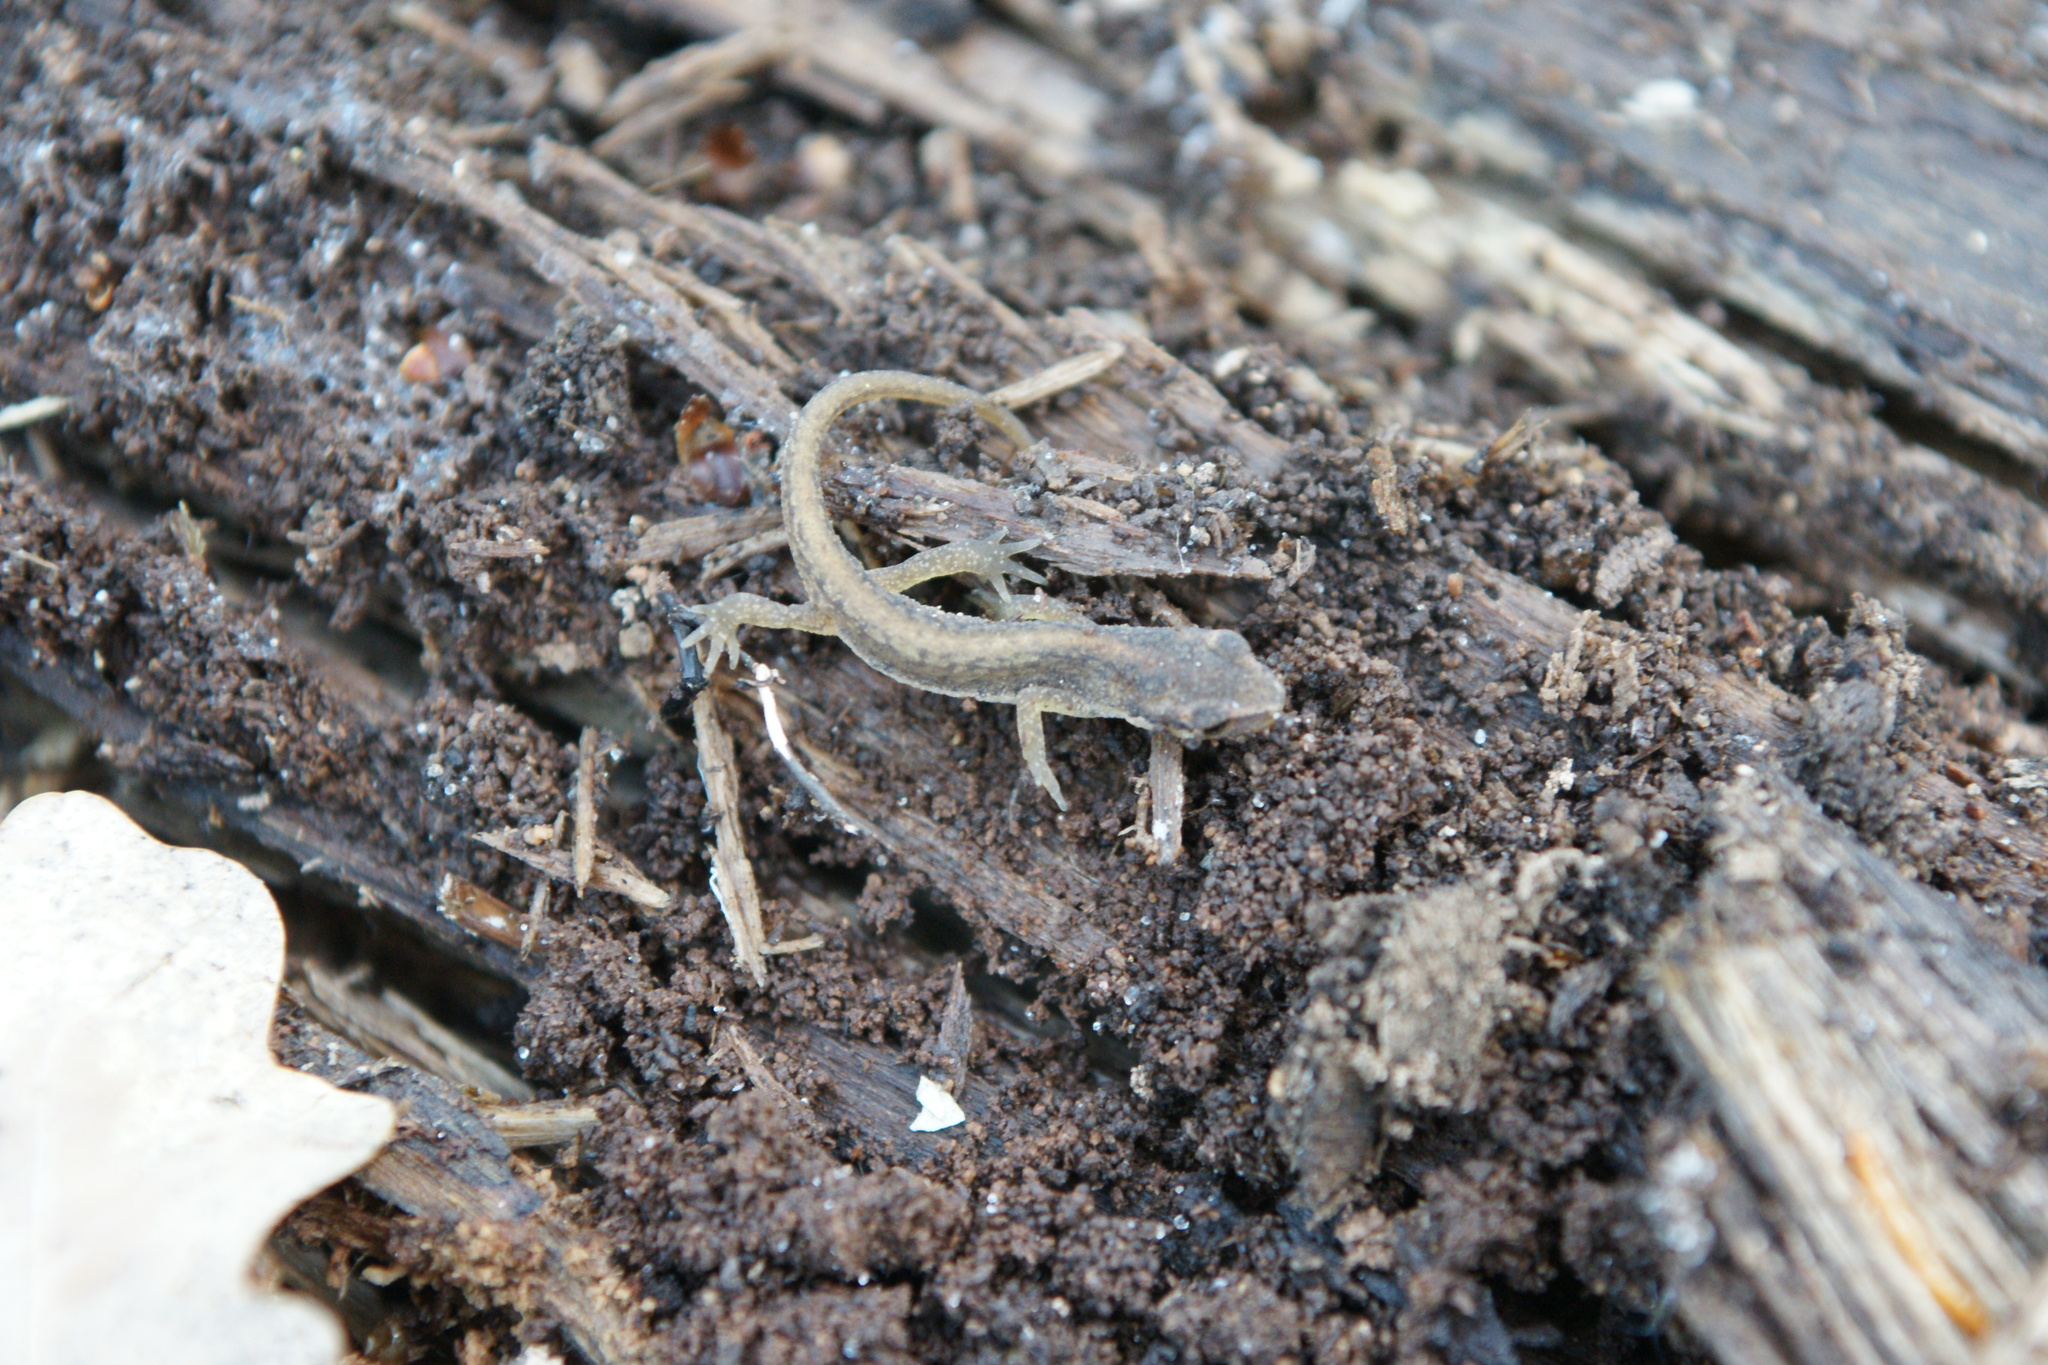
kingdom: Animalia
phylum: Chordata
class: Amphibia
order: Caudata
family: Salamandridae
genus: Lissotriton
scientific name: Lissotriton vulgaris
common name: Smooth newt
